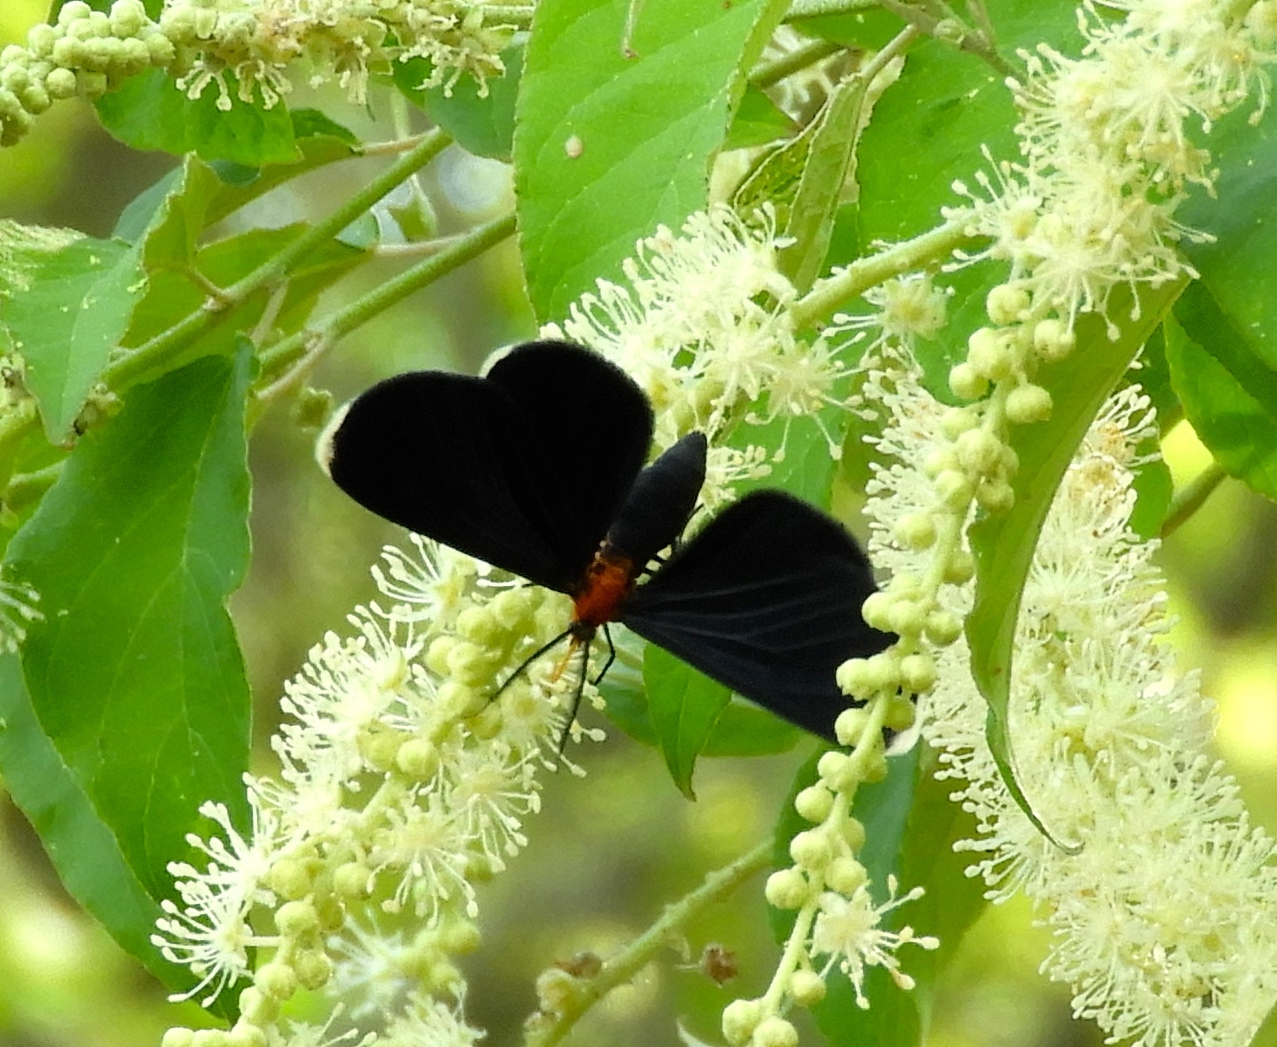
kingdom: Animalia
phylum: Arthropoda
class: Insecta
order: Lepidoptera
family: Geometridae
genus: Melanchroia
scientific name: Melanchroia chephise
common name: White-tipped black
